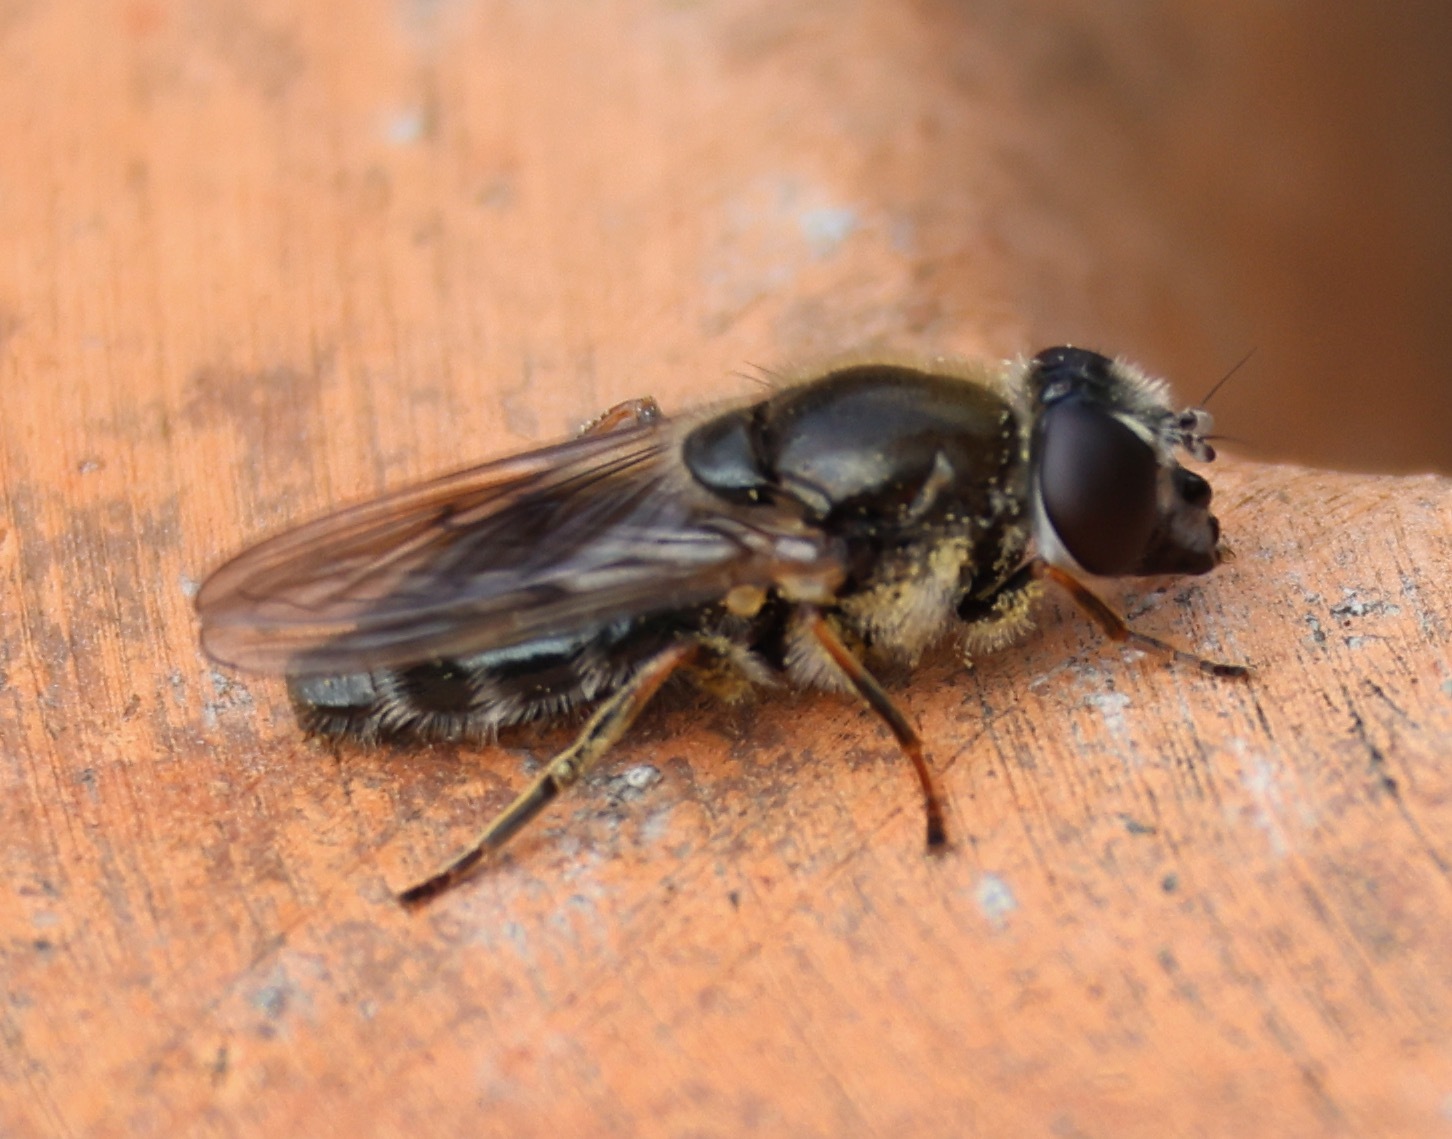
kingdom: Animalia
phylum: Arthropoda
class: Insecta
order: Diptera
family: Syrphidae
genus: Cheilosia
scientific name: Cheilosia caerulescens
